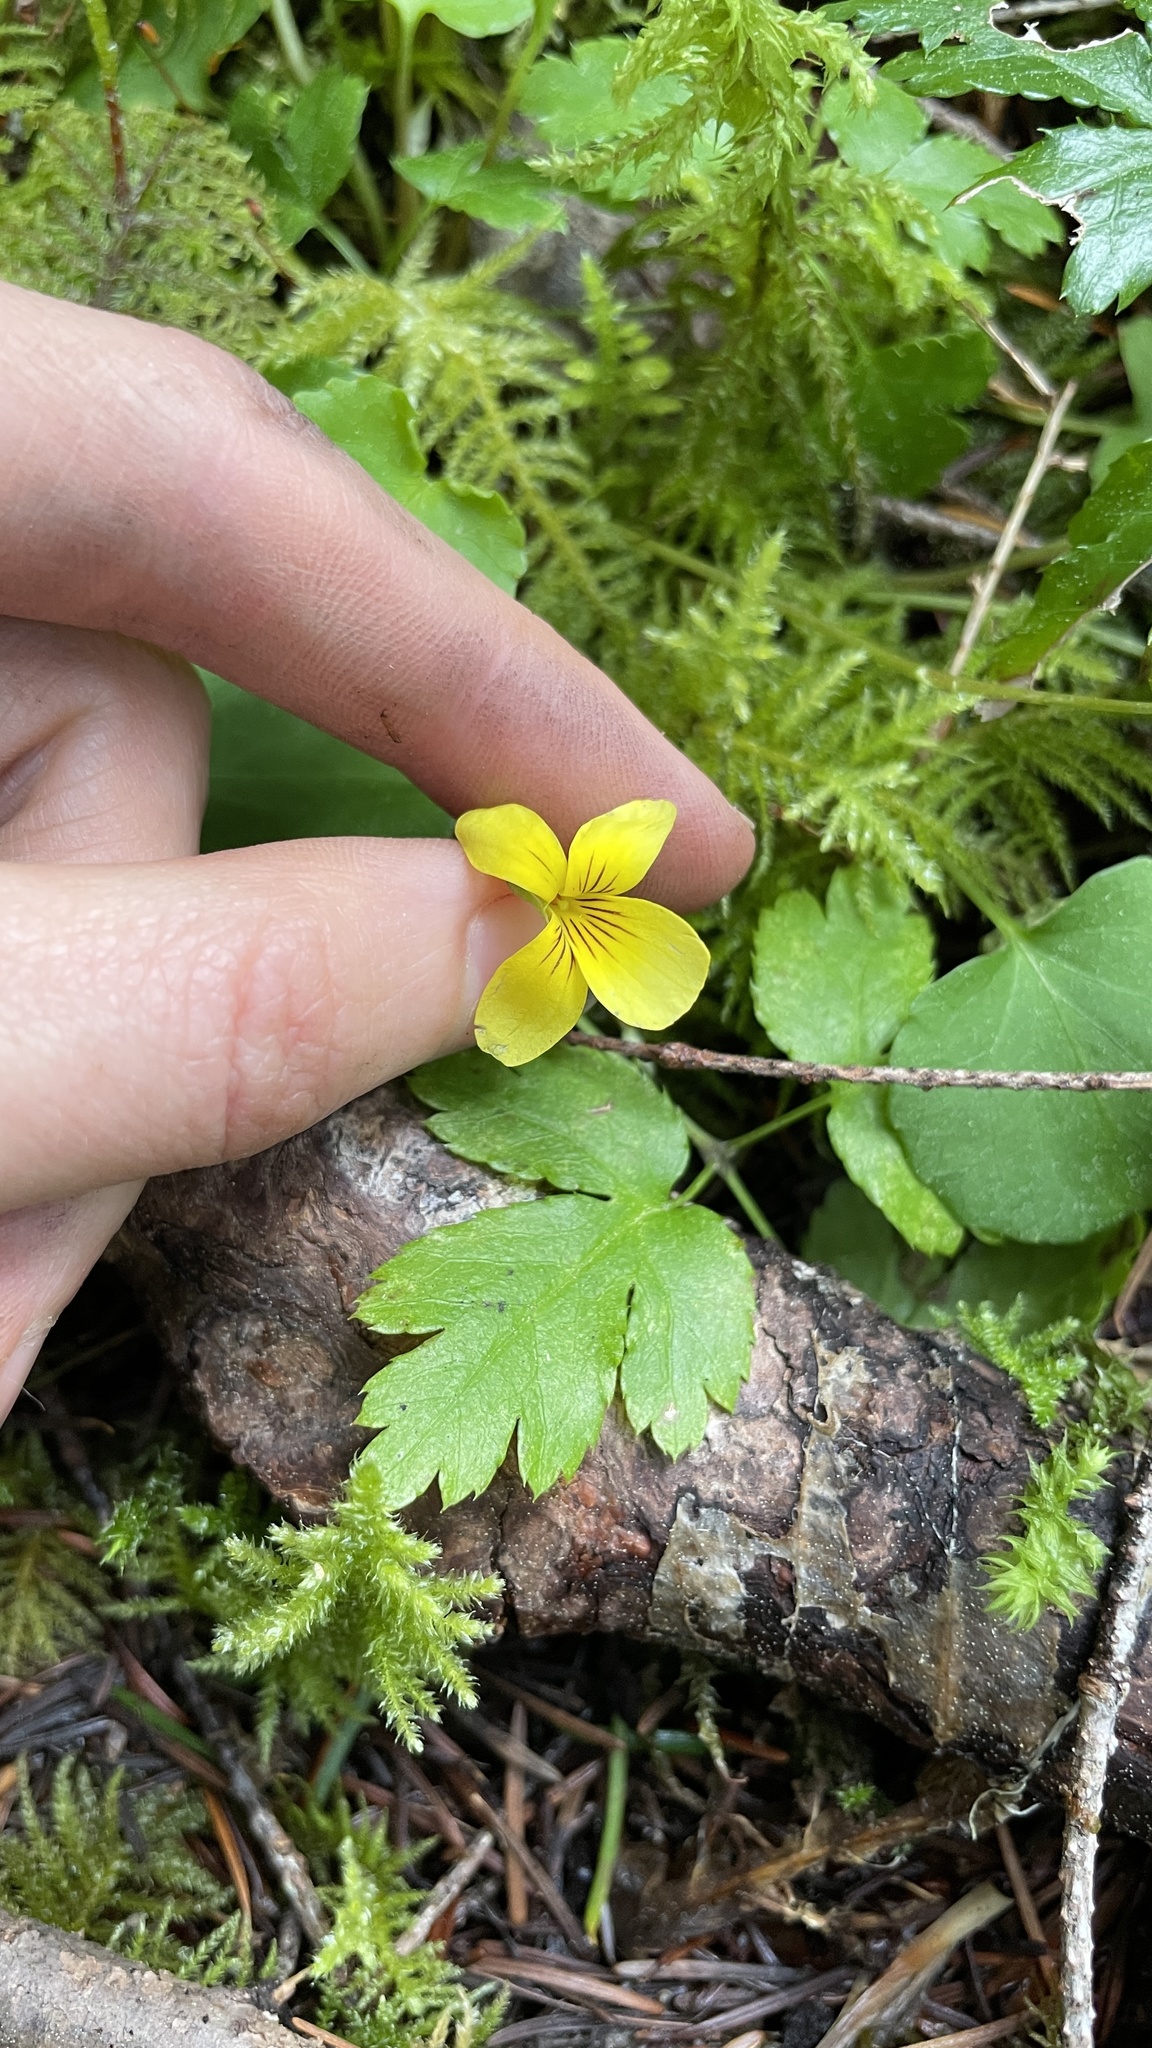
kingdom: Plantae
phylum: Tracheophyta
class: Magnoliopsida
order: Malpighiales
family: Violaceae
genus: Viola
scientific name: Viola sempervirens
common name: Evergreen violet
